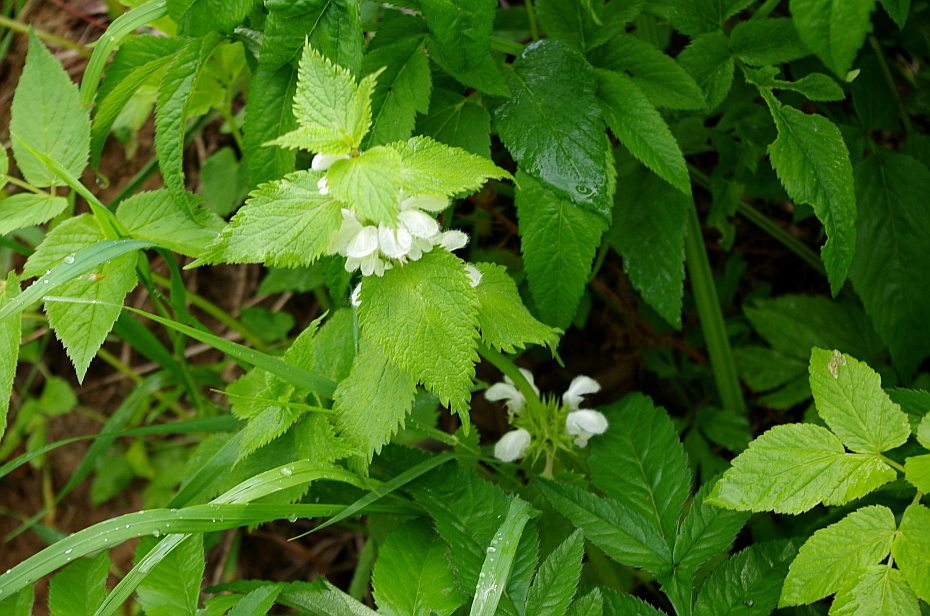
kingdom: Plantae
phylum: Tracheophyta
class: Magnoliopsida
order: Lamiales
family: Lamiaceae
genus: Lamium
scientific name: Lamium album
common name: White dead-nettle
